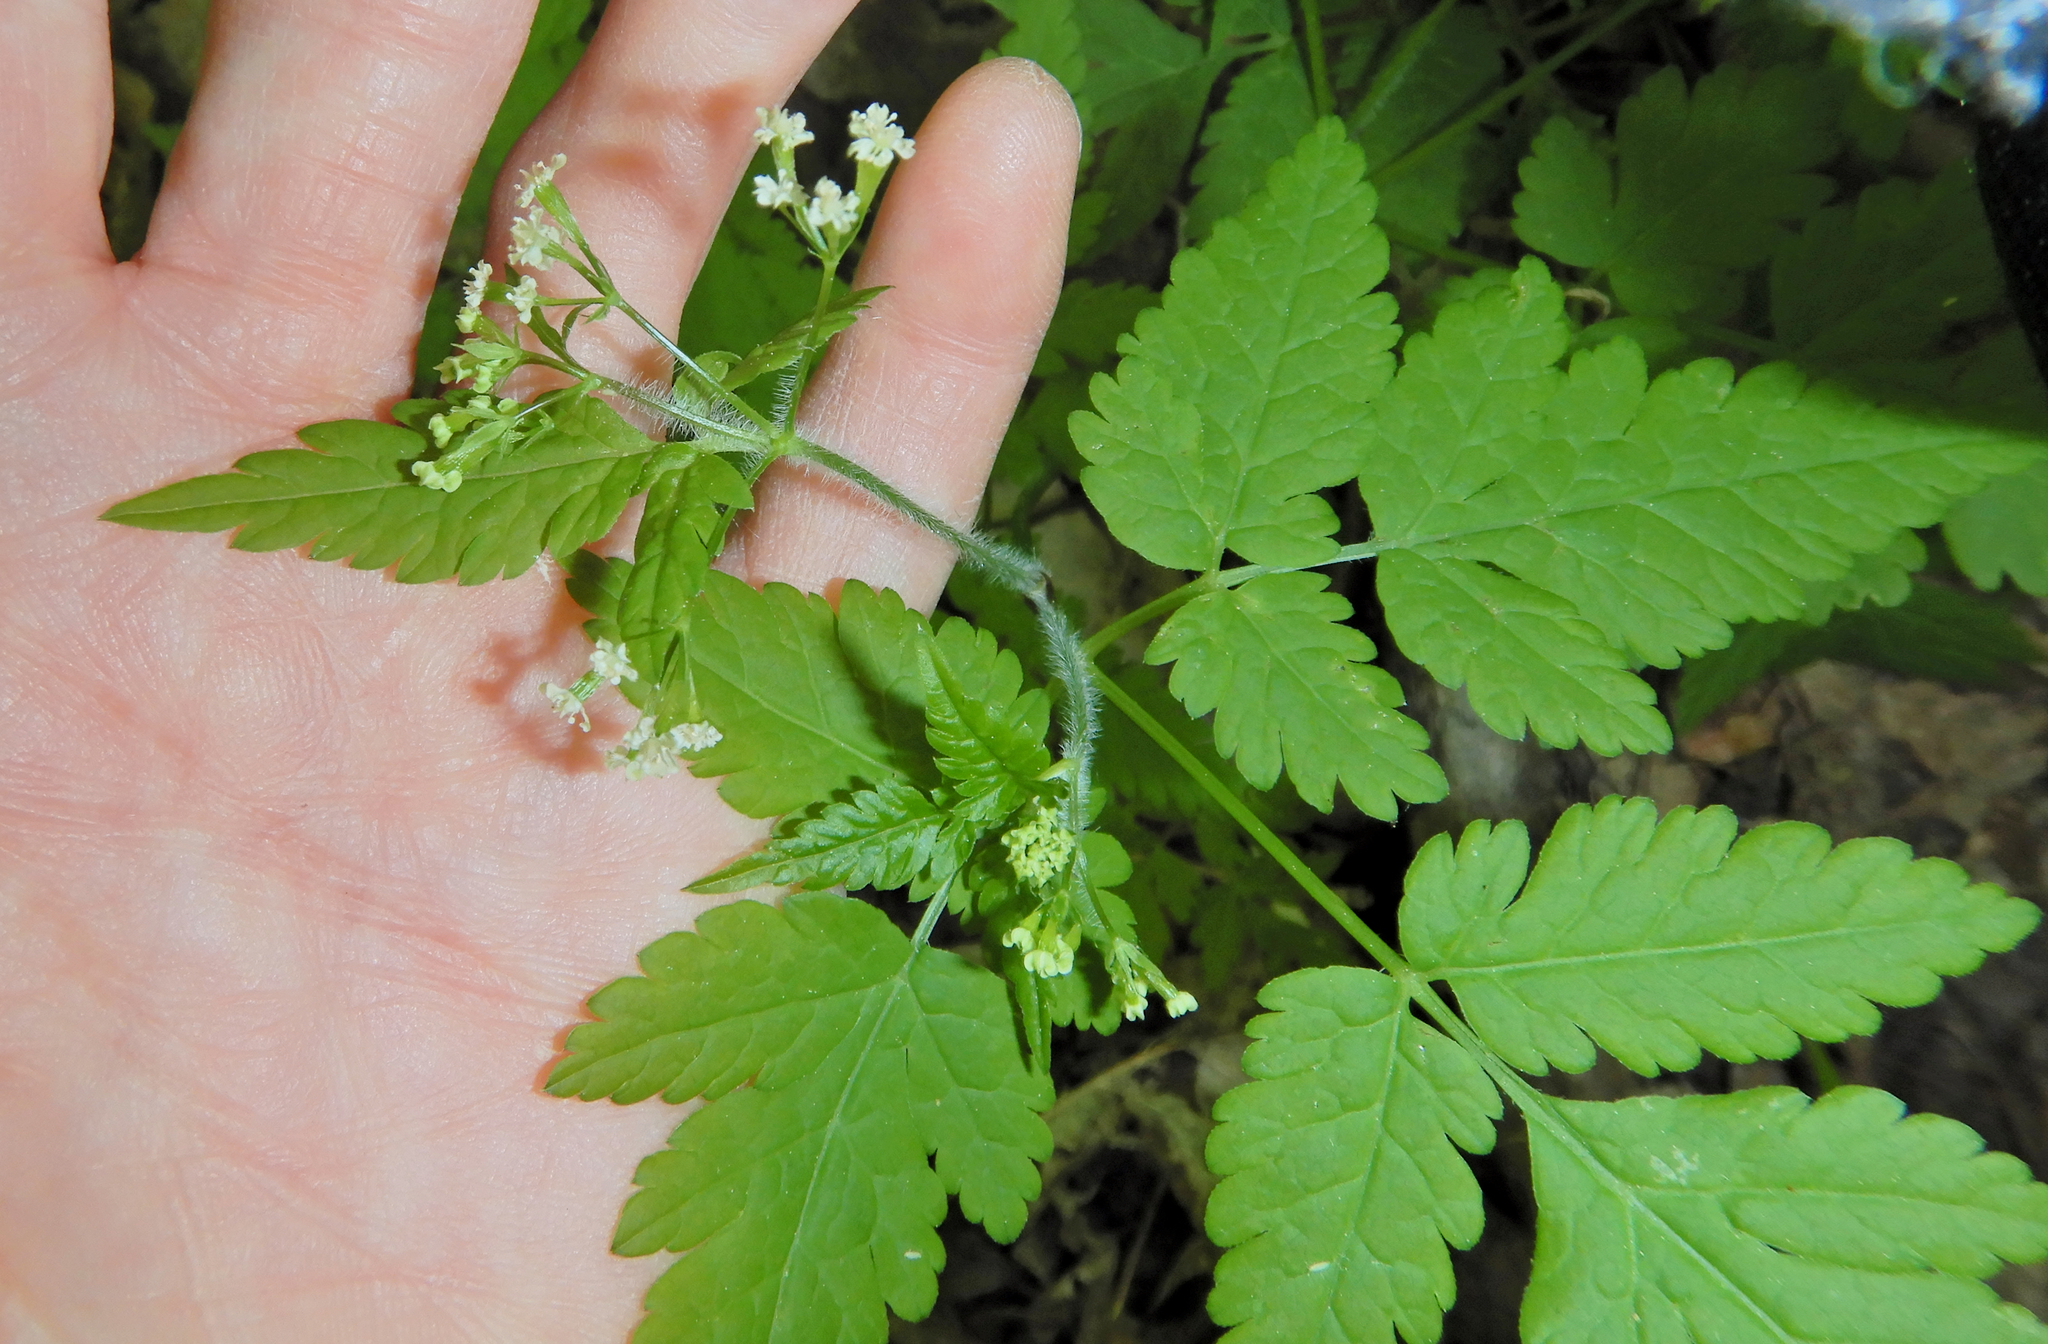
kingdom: Plantae
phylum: Tracheophyta
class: Magnoliopsida
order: Apiales
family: Apiaceae
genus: Osmorhiza
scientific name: Osmorhiza claytonii
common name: Hairy sweet cicely
